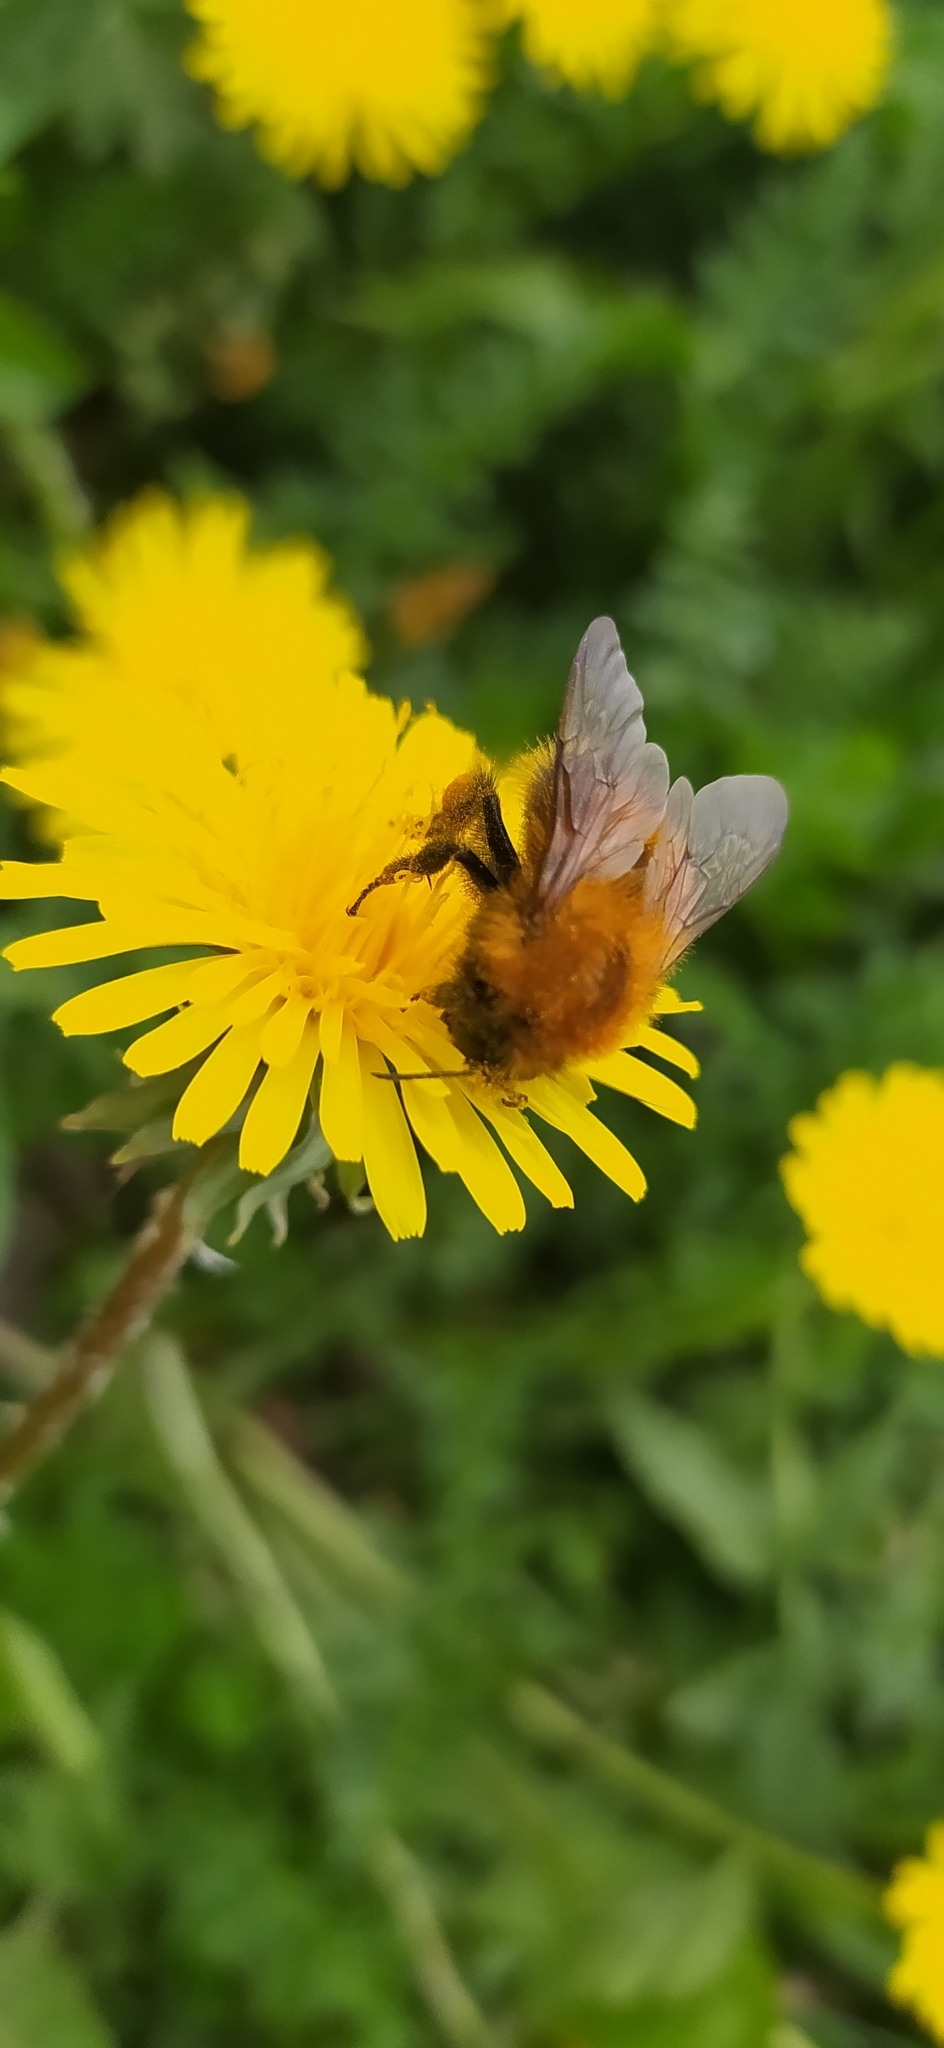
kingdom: Animalia
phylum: Arthropoda
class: Insecta
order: Hymenoptera
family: Apidae
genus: Bombus
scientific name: Bombus hypnorum
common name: New garden bumblebee
